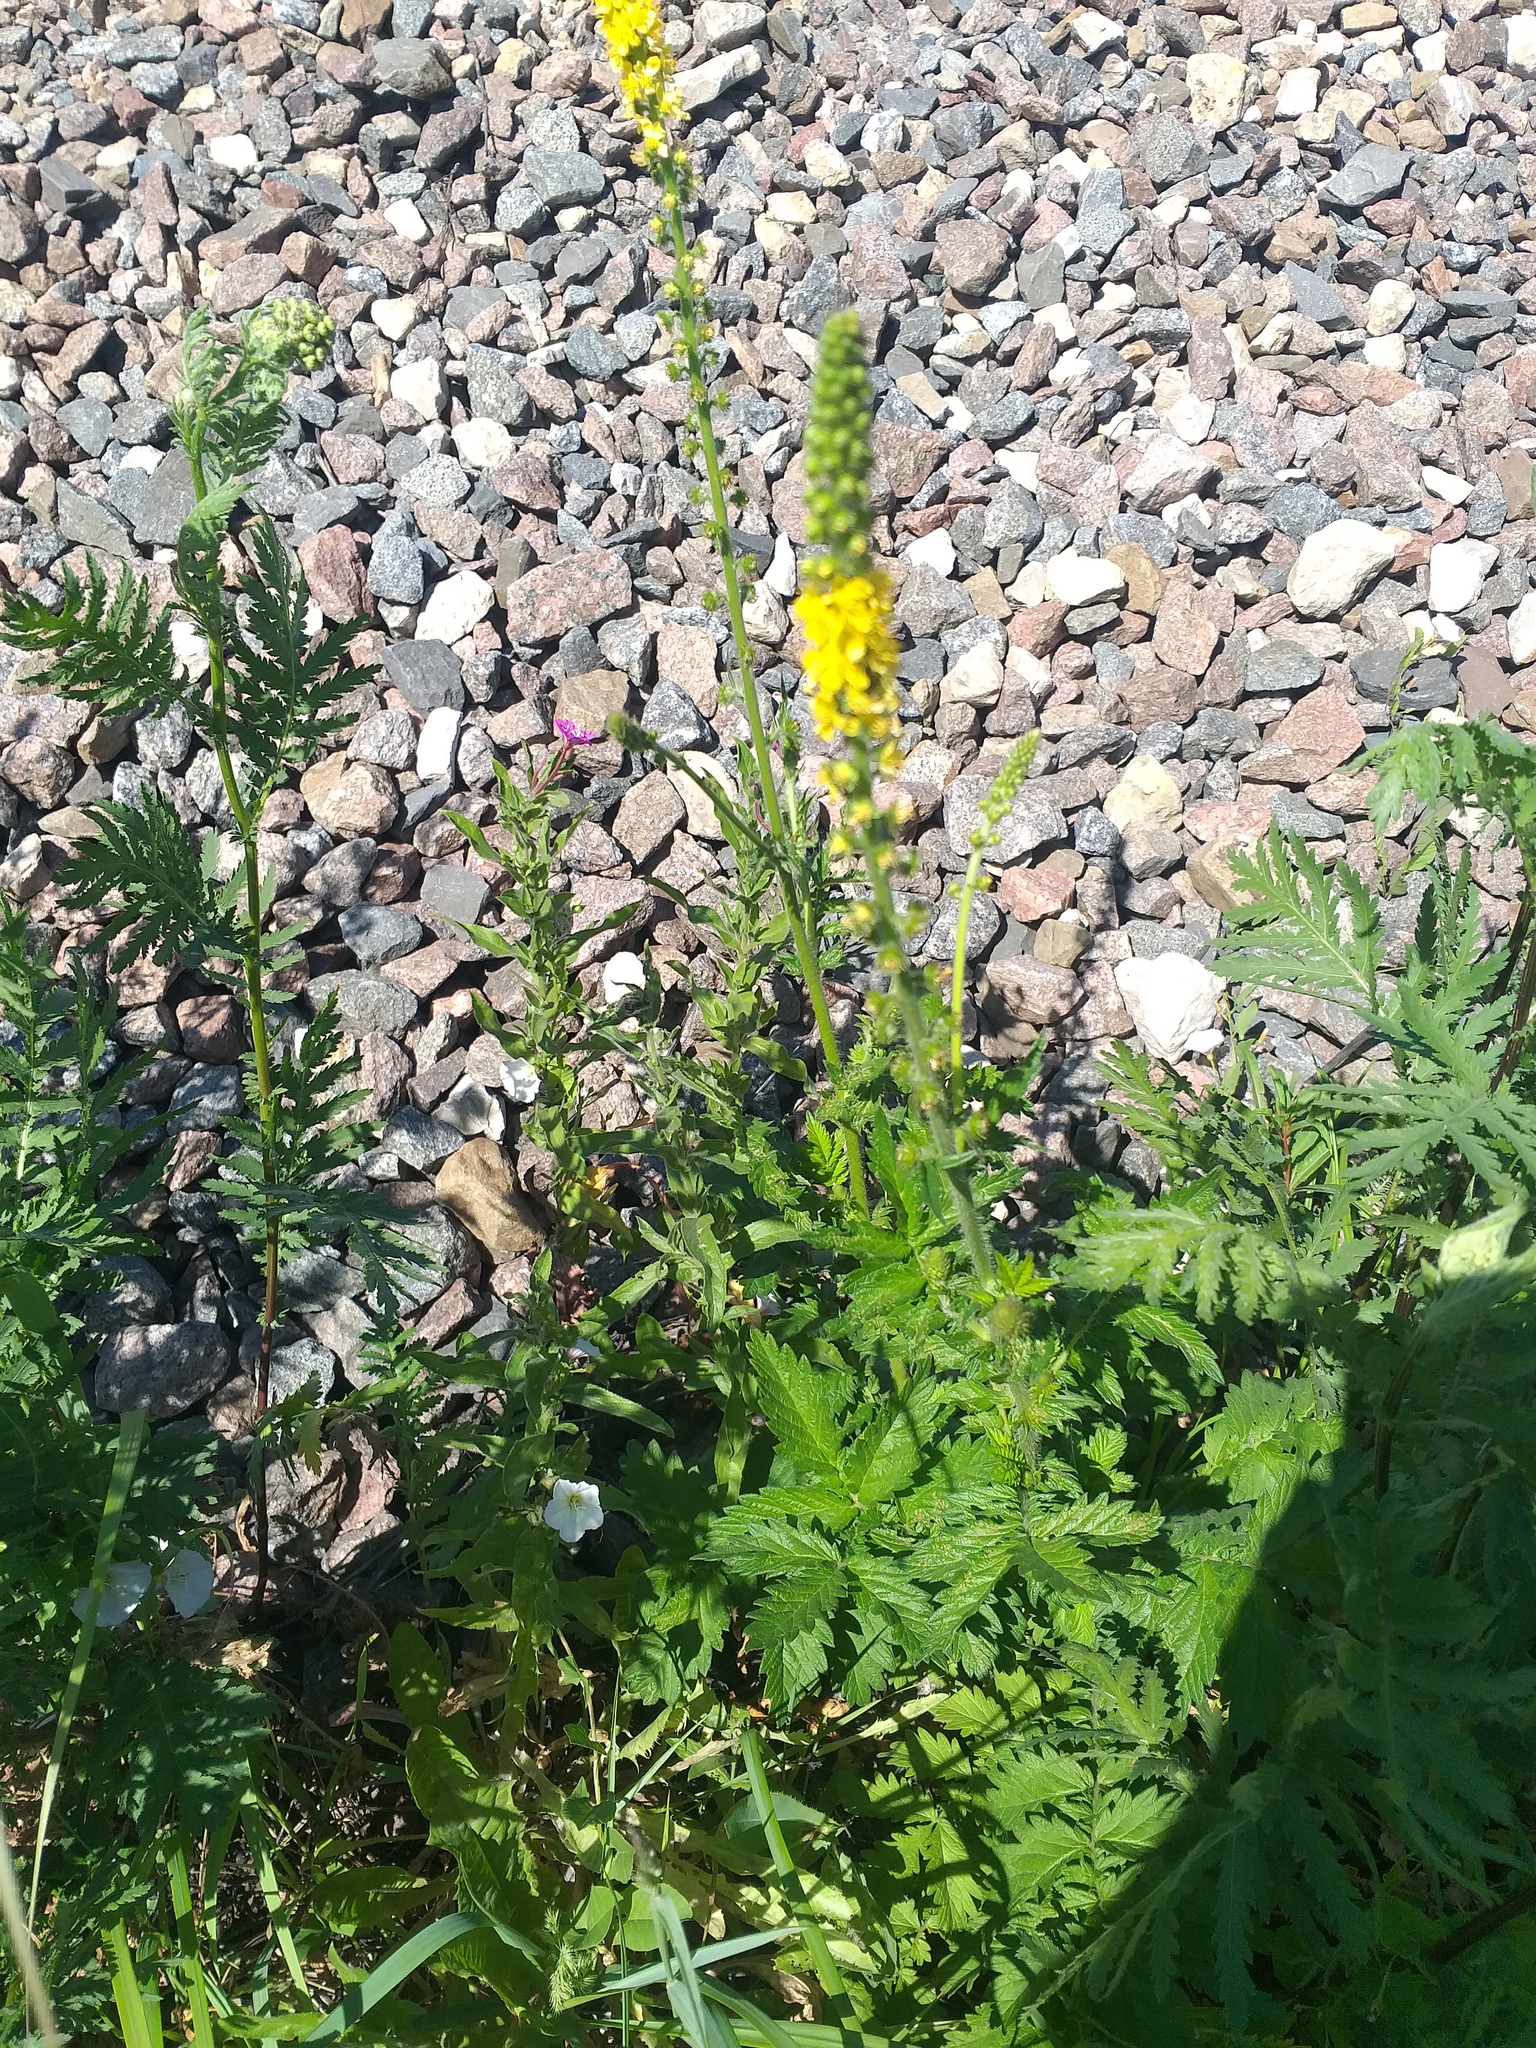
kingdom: Plantae
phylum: Tracheophyta
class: Magnoliopsida
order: Rosales
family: Rosaceae
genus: Agrimonia
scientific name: Agrimonia eupatoria
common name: Agrimony
